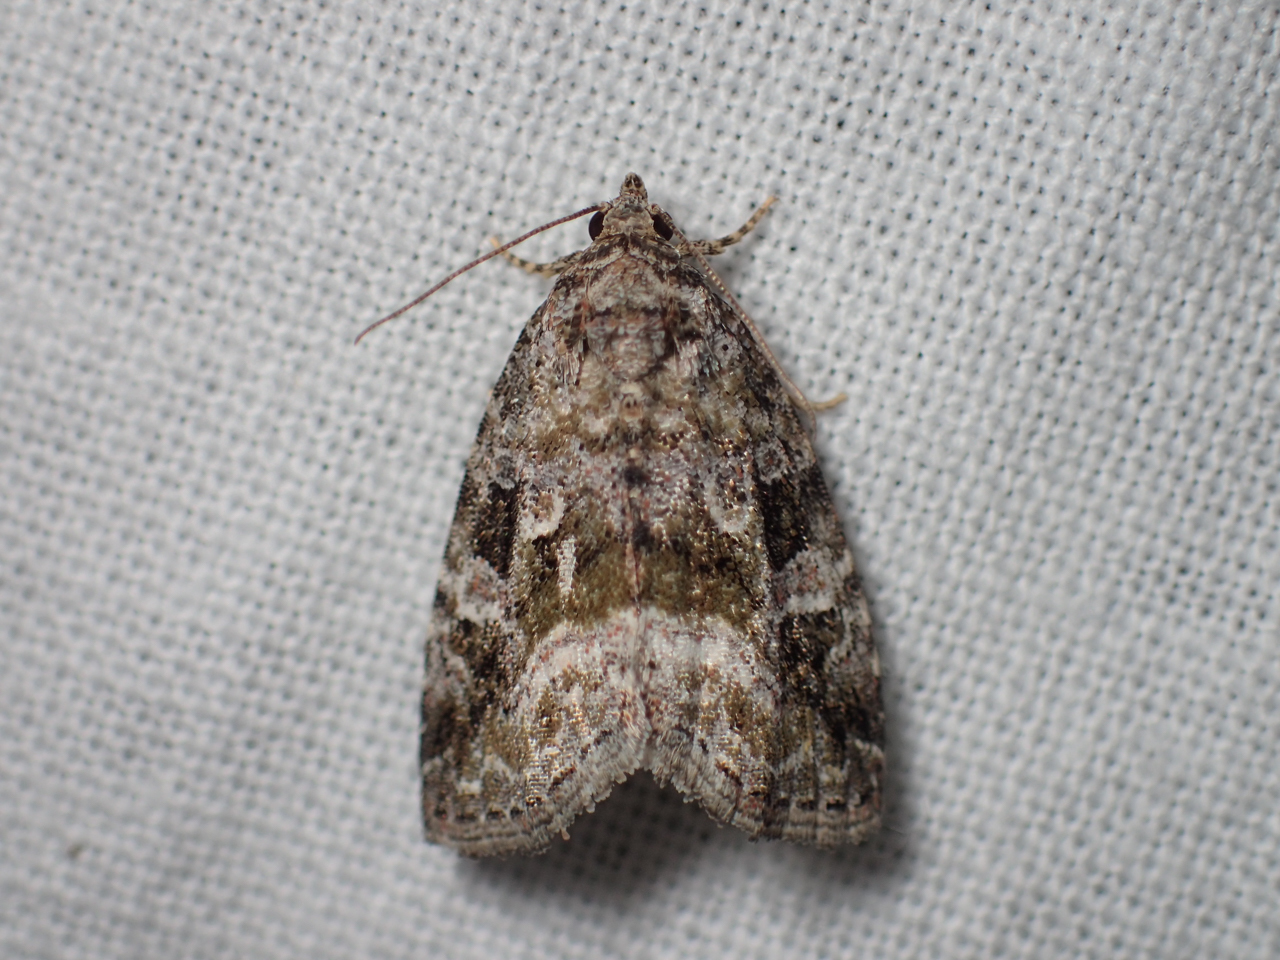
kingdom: Animalia
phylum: Arthropoda
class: Insecta
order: Lepidoptera
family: Noctuidae
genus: Protodeltote
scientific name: Protodeltote muscosula
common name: Large mossy glyph
